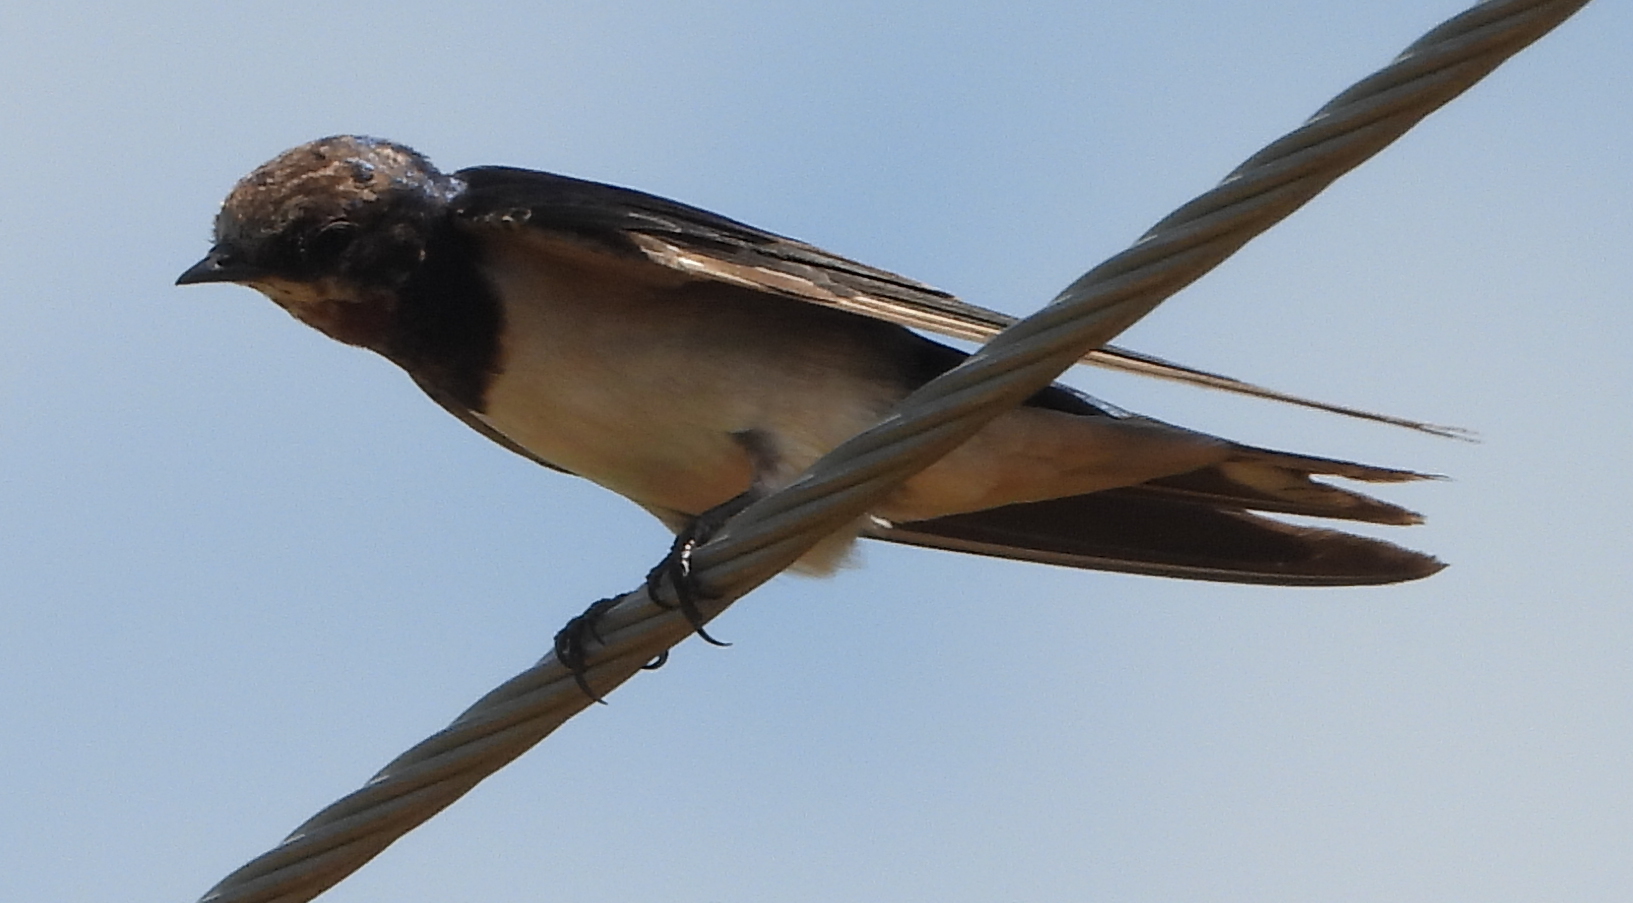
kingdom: Animalia
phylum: Chordata
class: Aves
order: Passeriformes
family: Hirundinidae
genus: Hirundo
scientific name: Hirundo rustica
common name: Barn swallow
